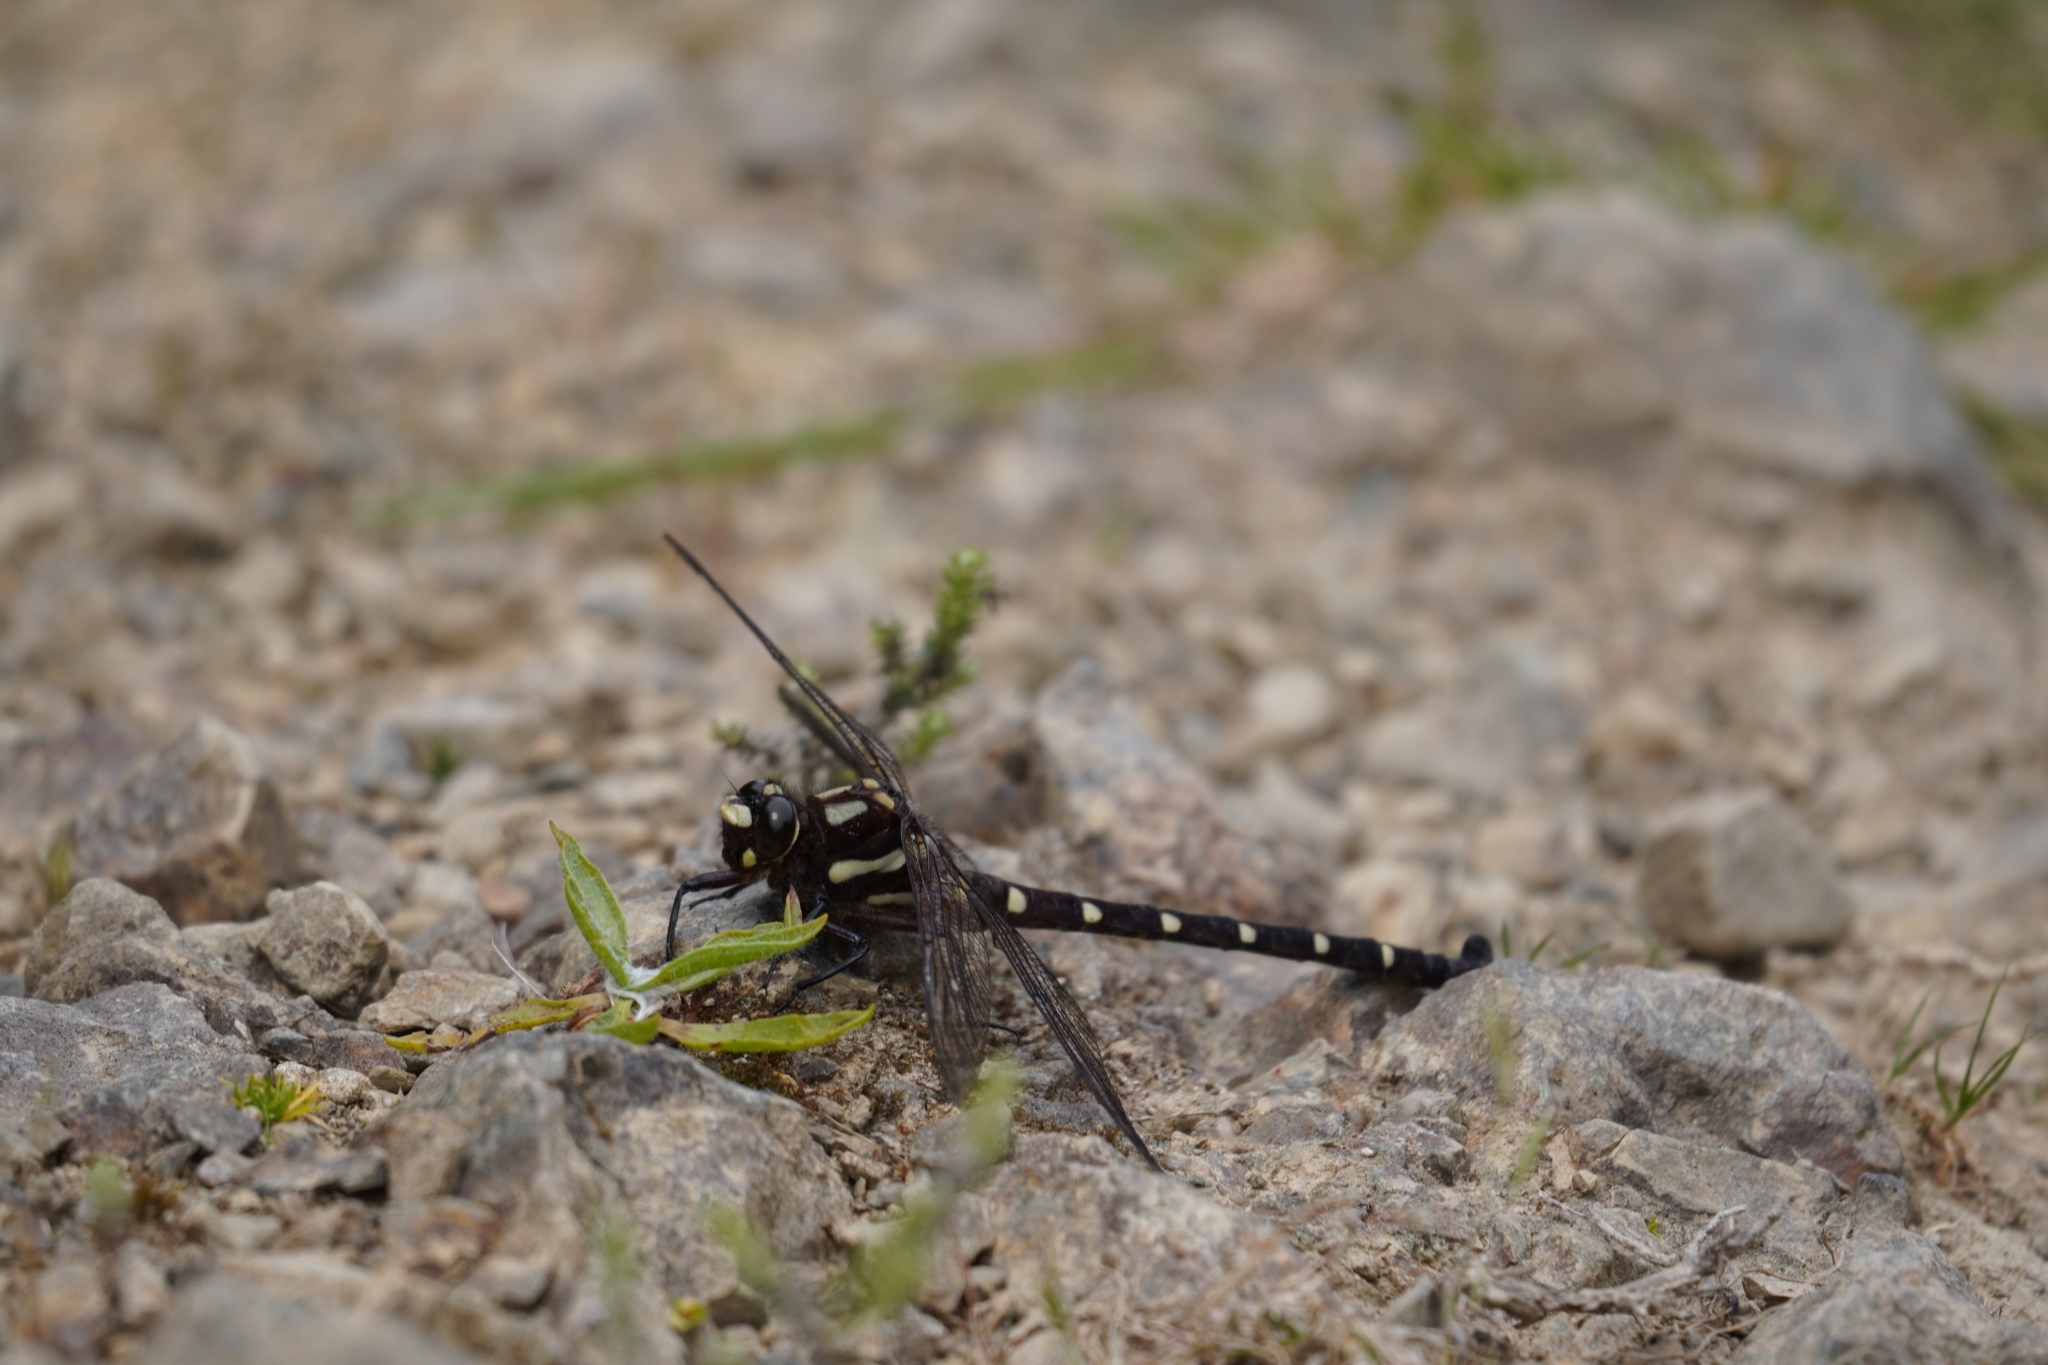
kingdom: Animalia
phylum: Arthropoda
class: Insecta
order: Odonata
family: Petaluridae
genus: Uropetala
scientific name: Uropetala carovei
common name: Bush giant dragonfly
